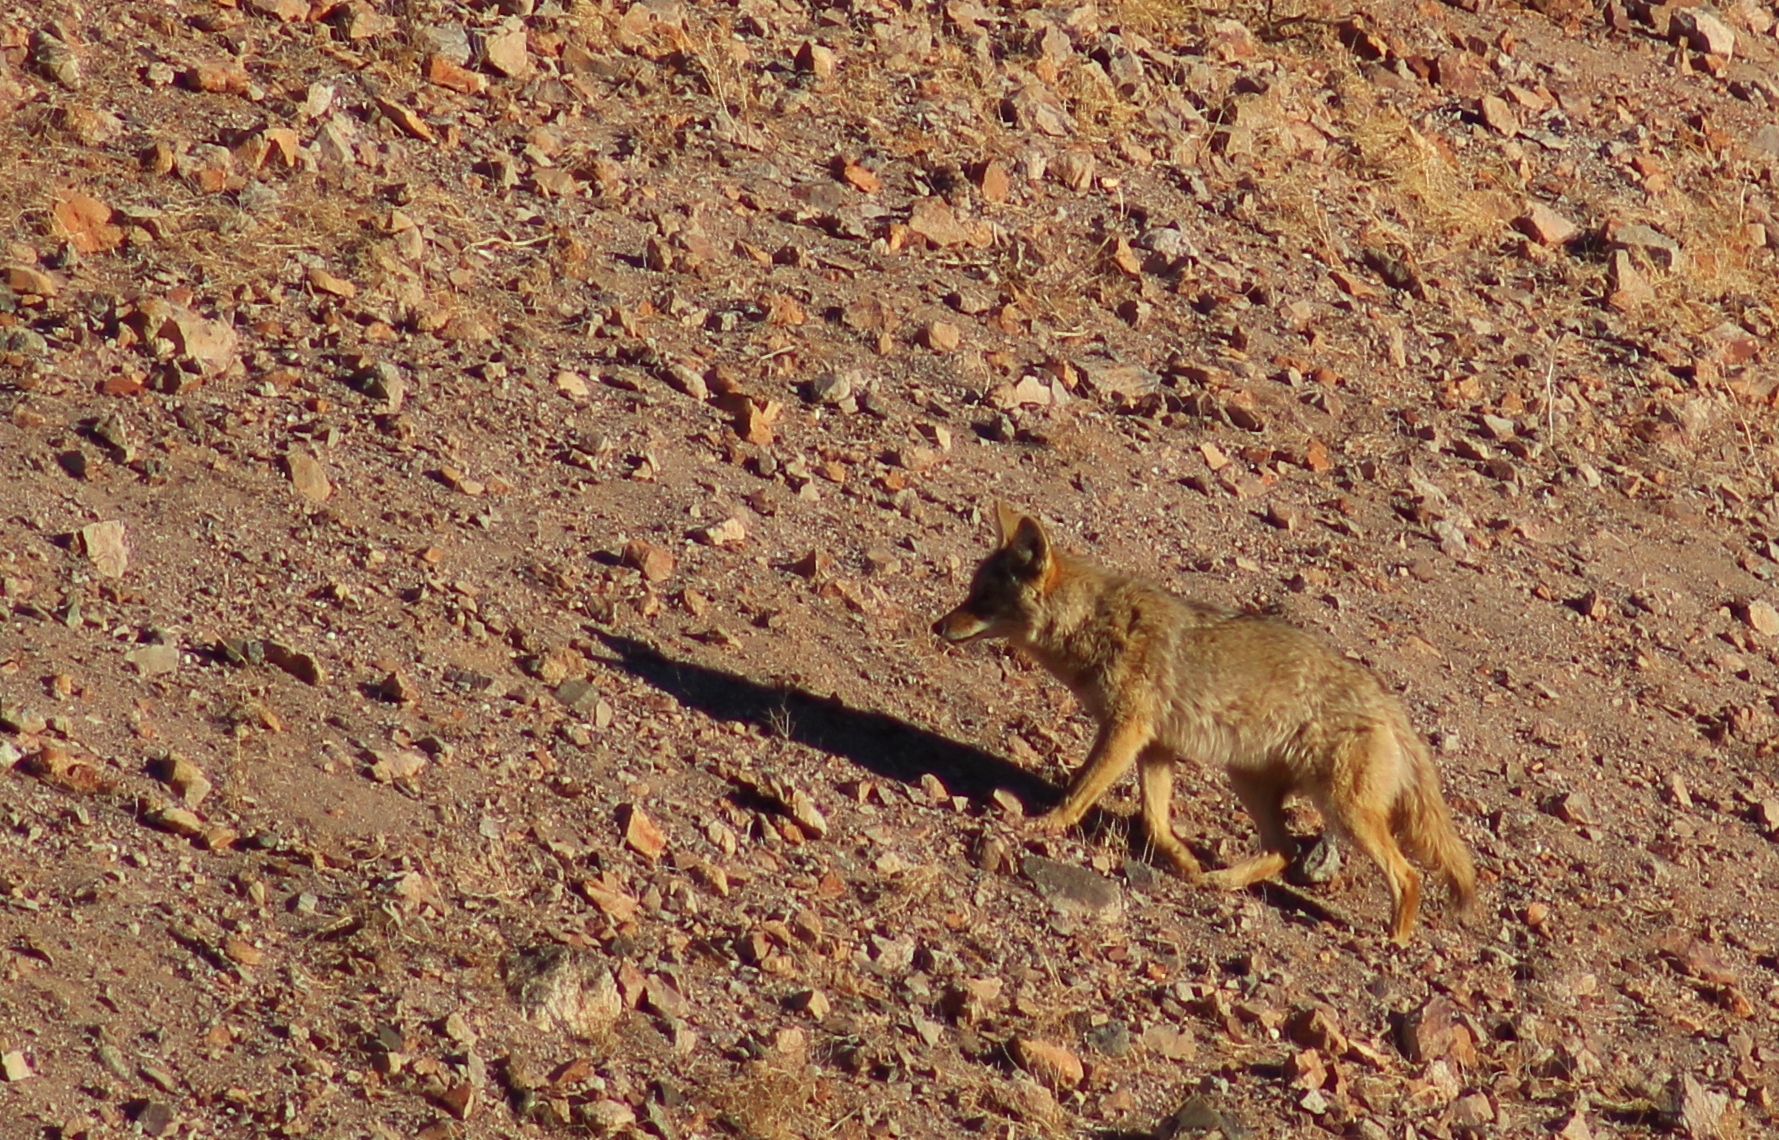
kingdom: Animalia
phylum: Chordata
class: Mammalia
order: Carnivora
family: Canidae
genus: Canis
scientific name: Canis latrans
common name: Coyote
